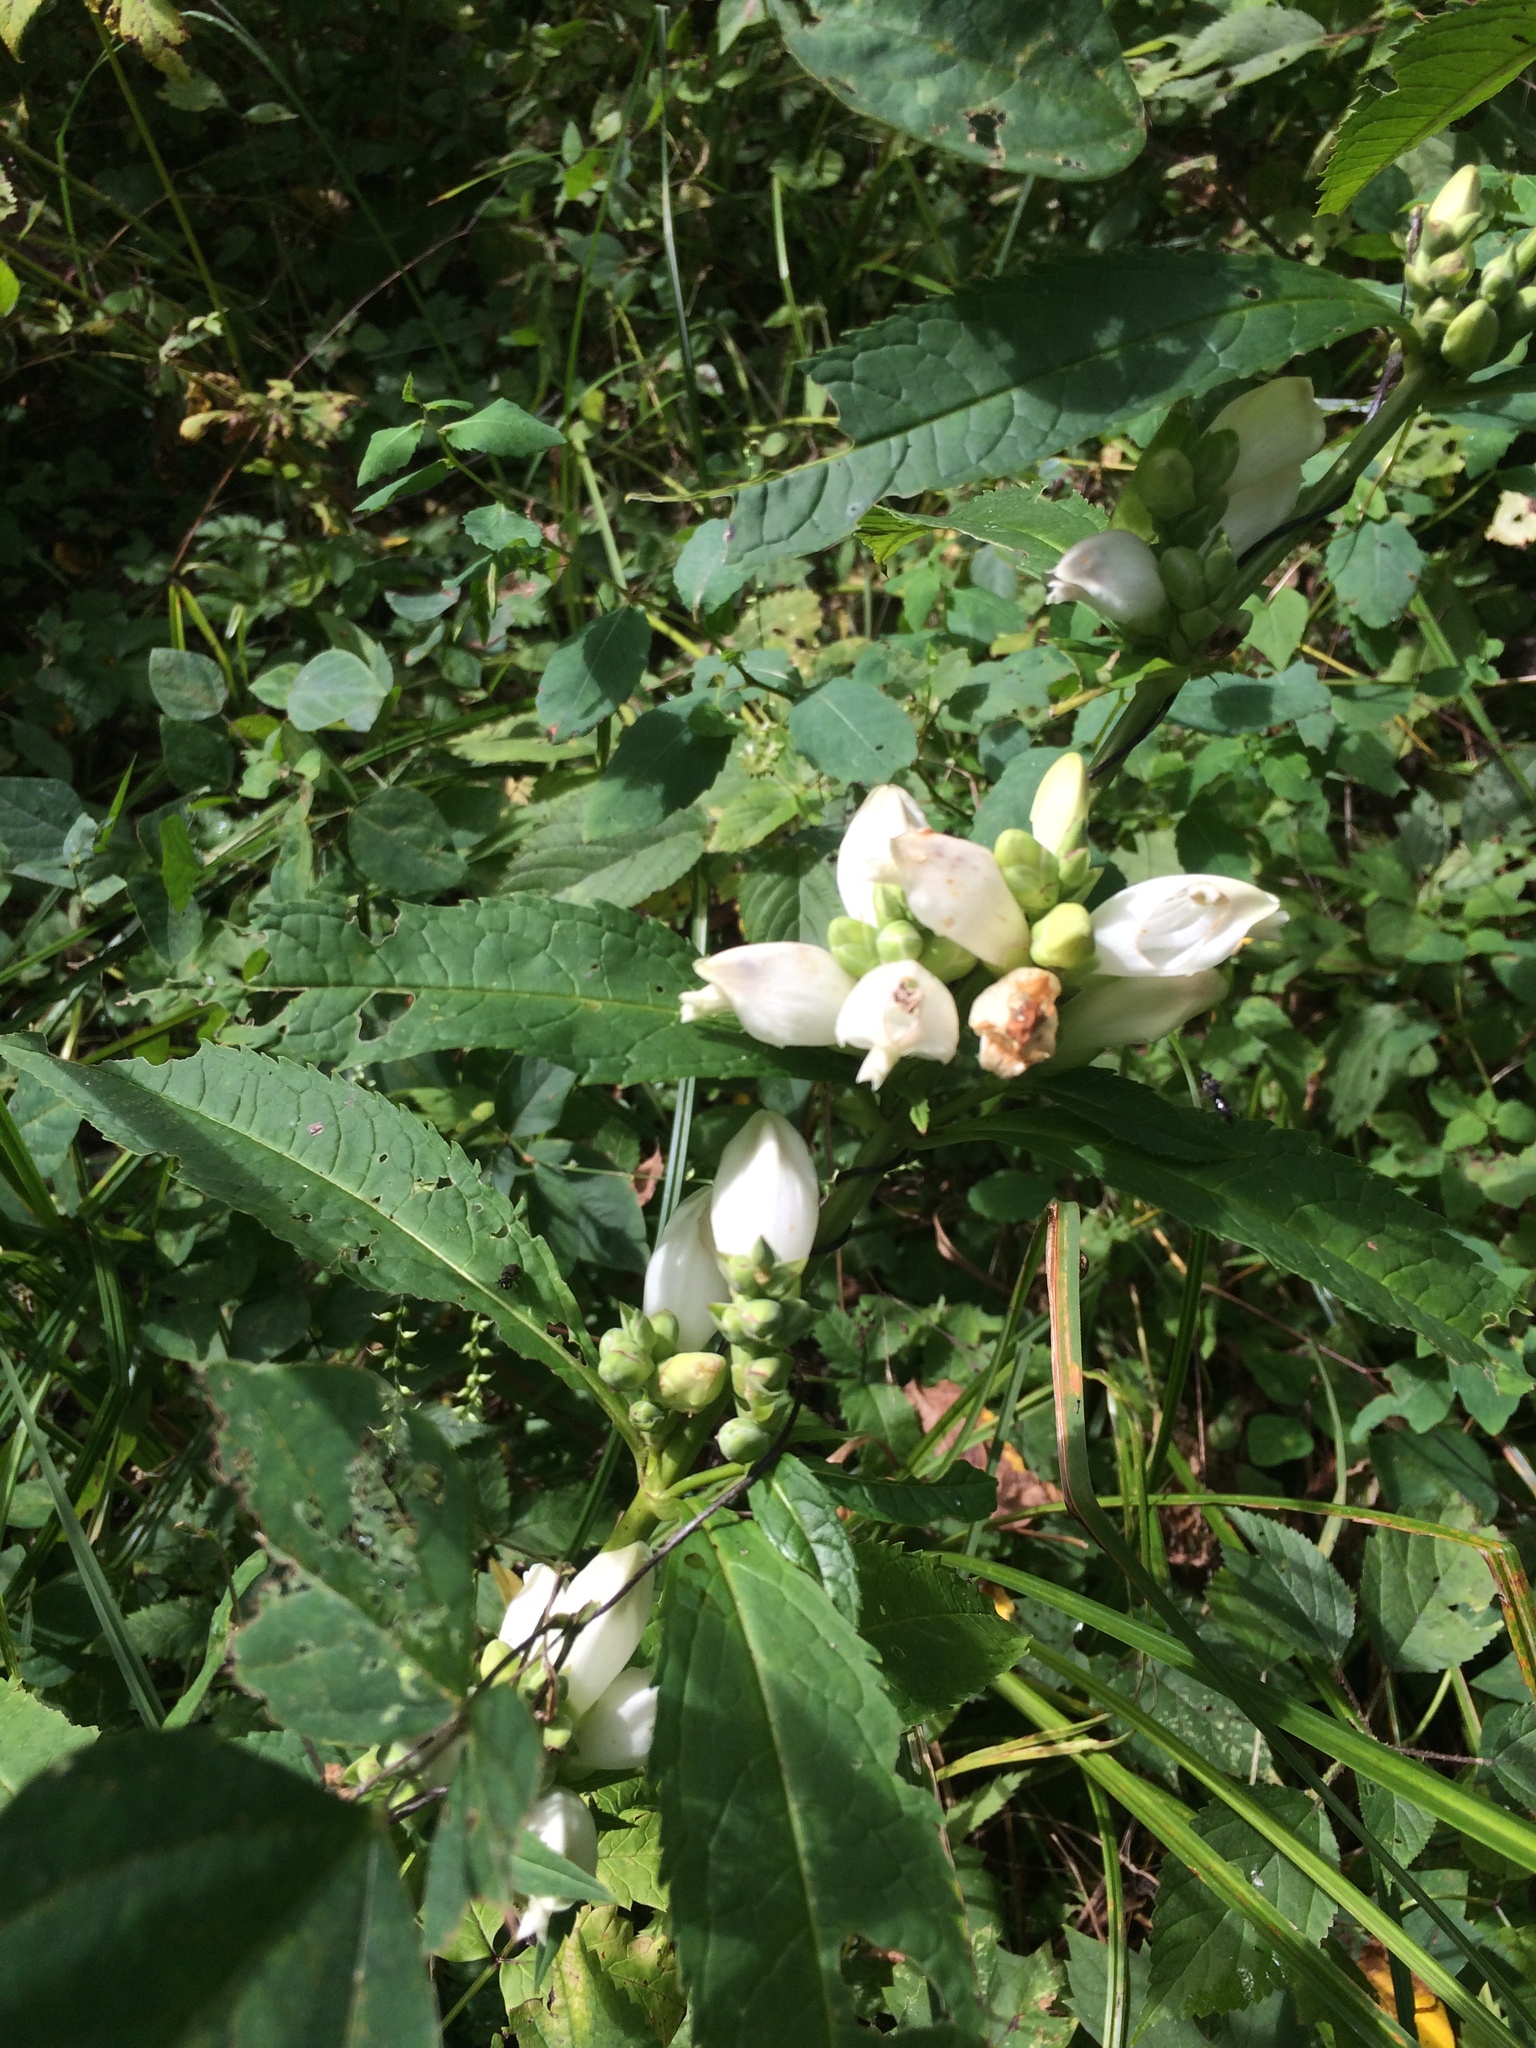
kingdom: Plantae
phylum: Tracheophyta
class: Magnoliopsida
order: Lamiales
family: Plantaginaceae
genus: Chelone
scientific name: Chelone glabra
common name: Snakehead
